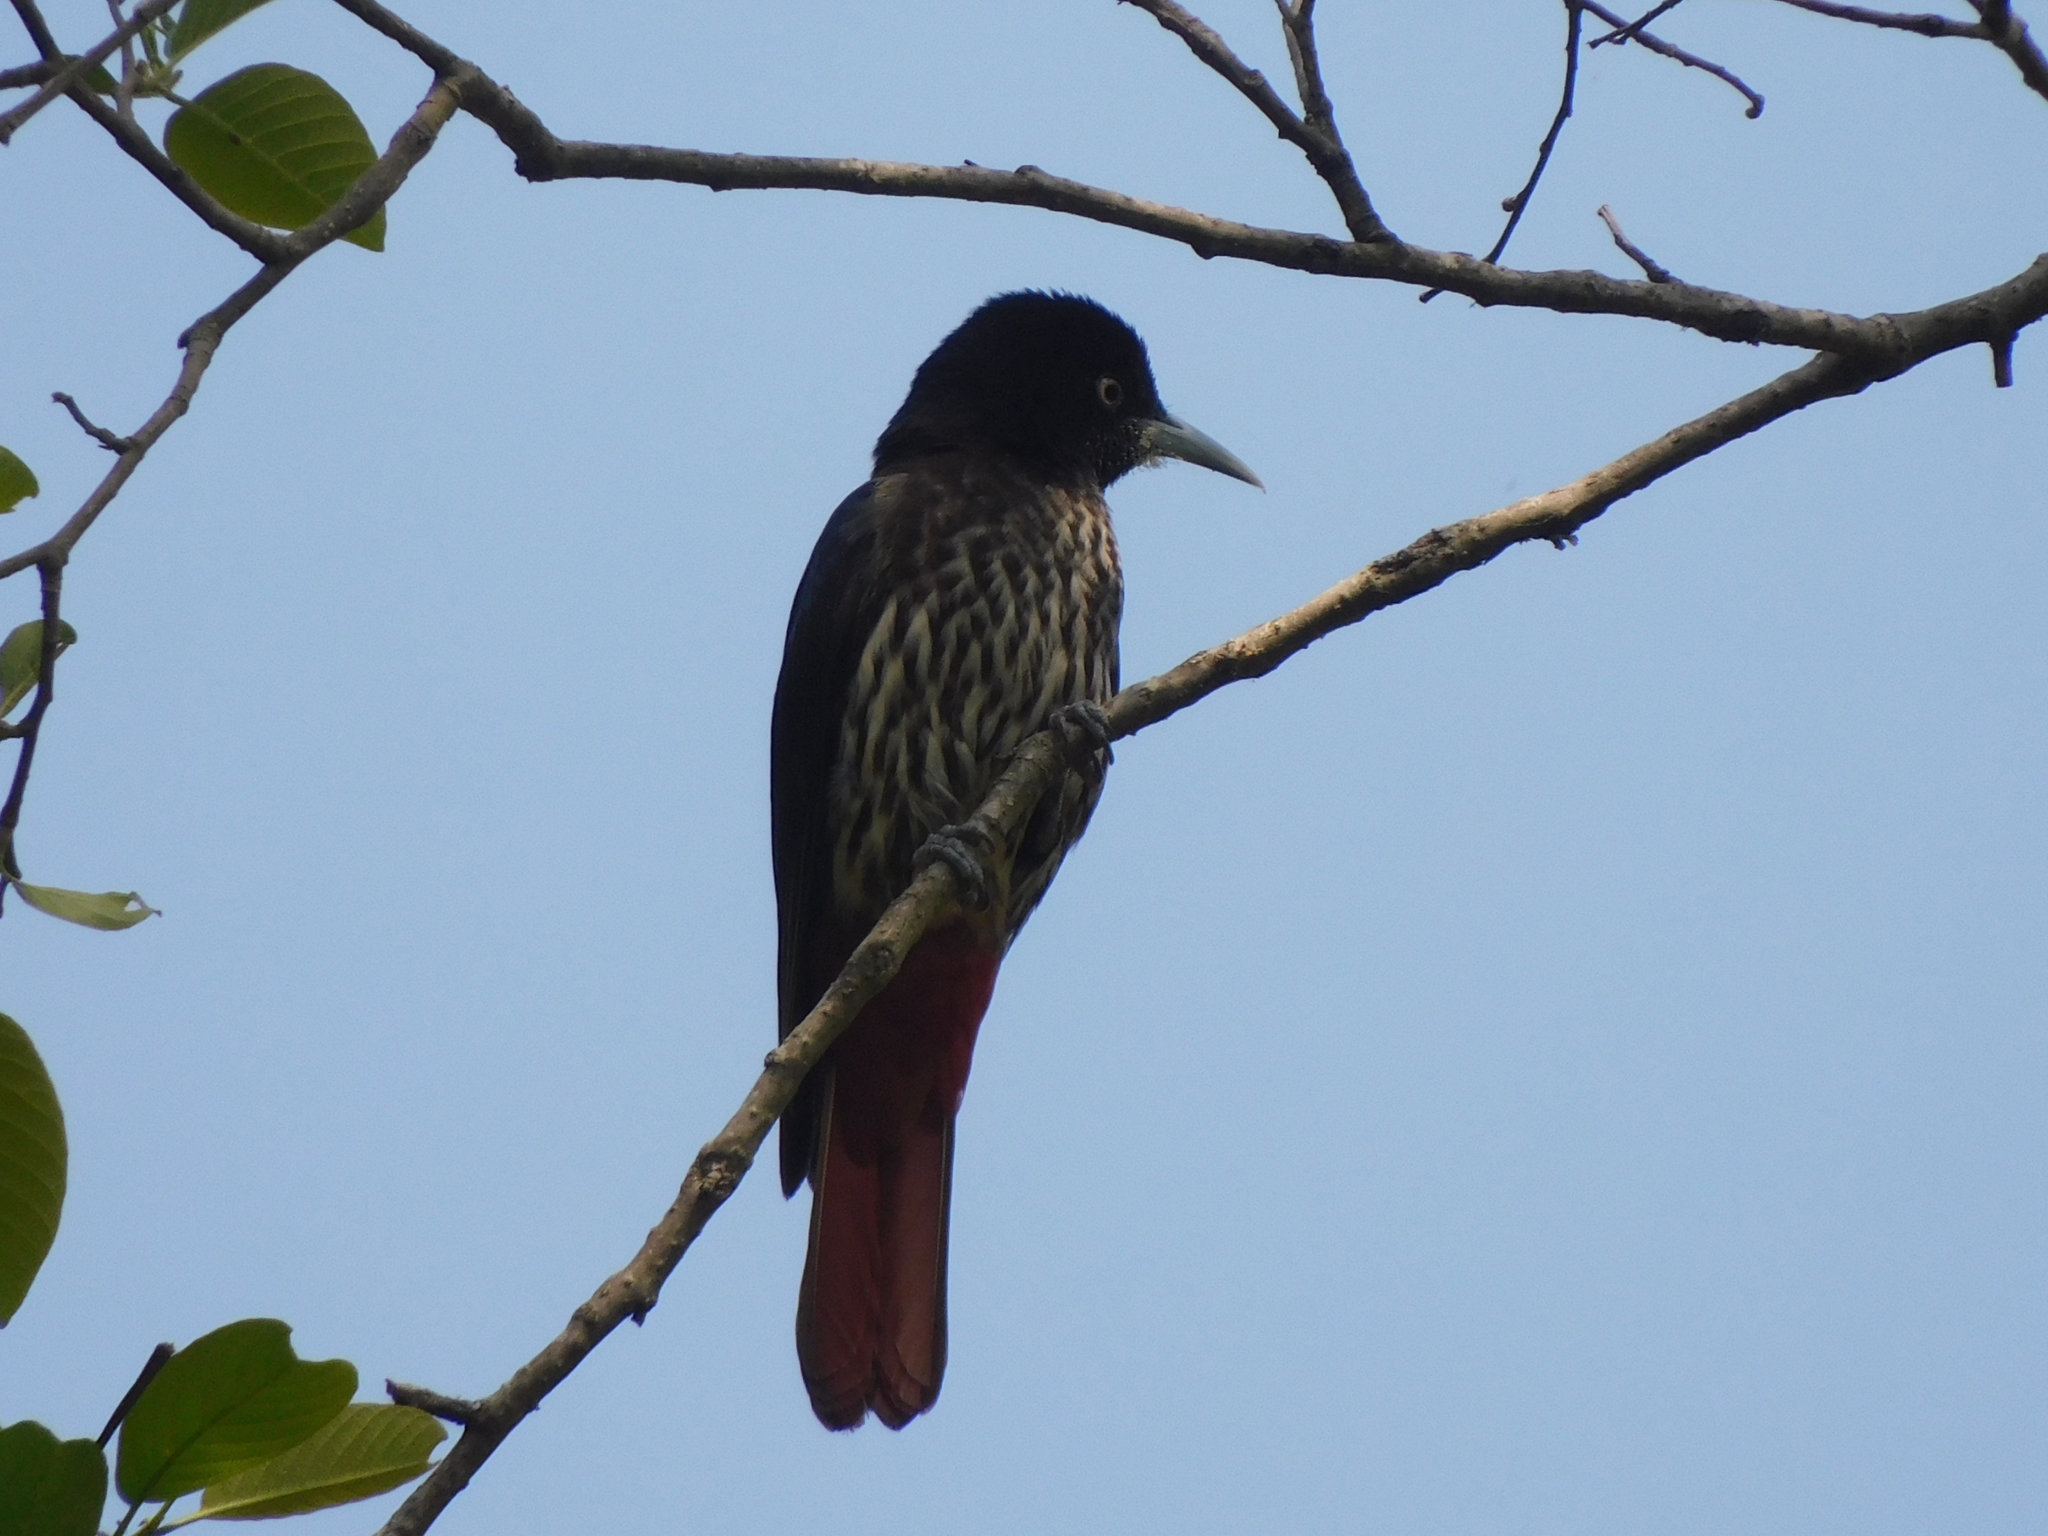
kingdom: Animalia
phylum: Chordata
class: Aves
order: Passeriformes
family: Oriolidae
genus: Oriolus
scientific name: Oriolus traillii
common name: Maroon oriole
